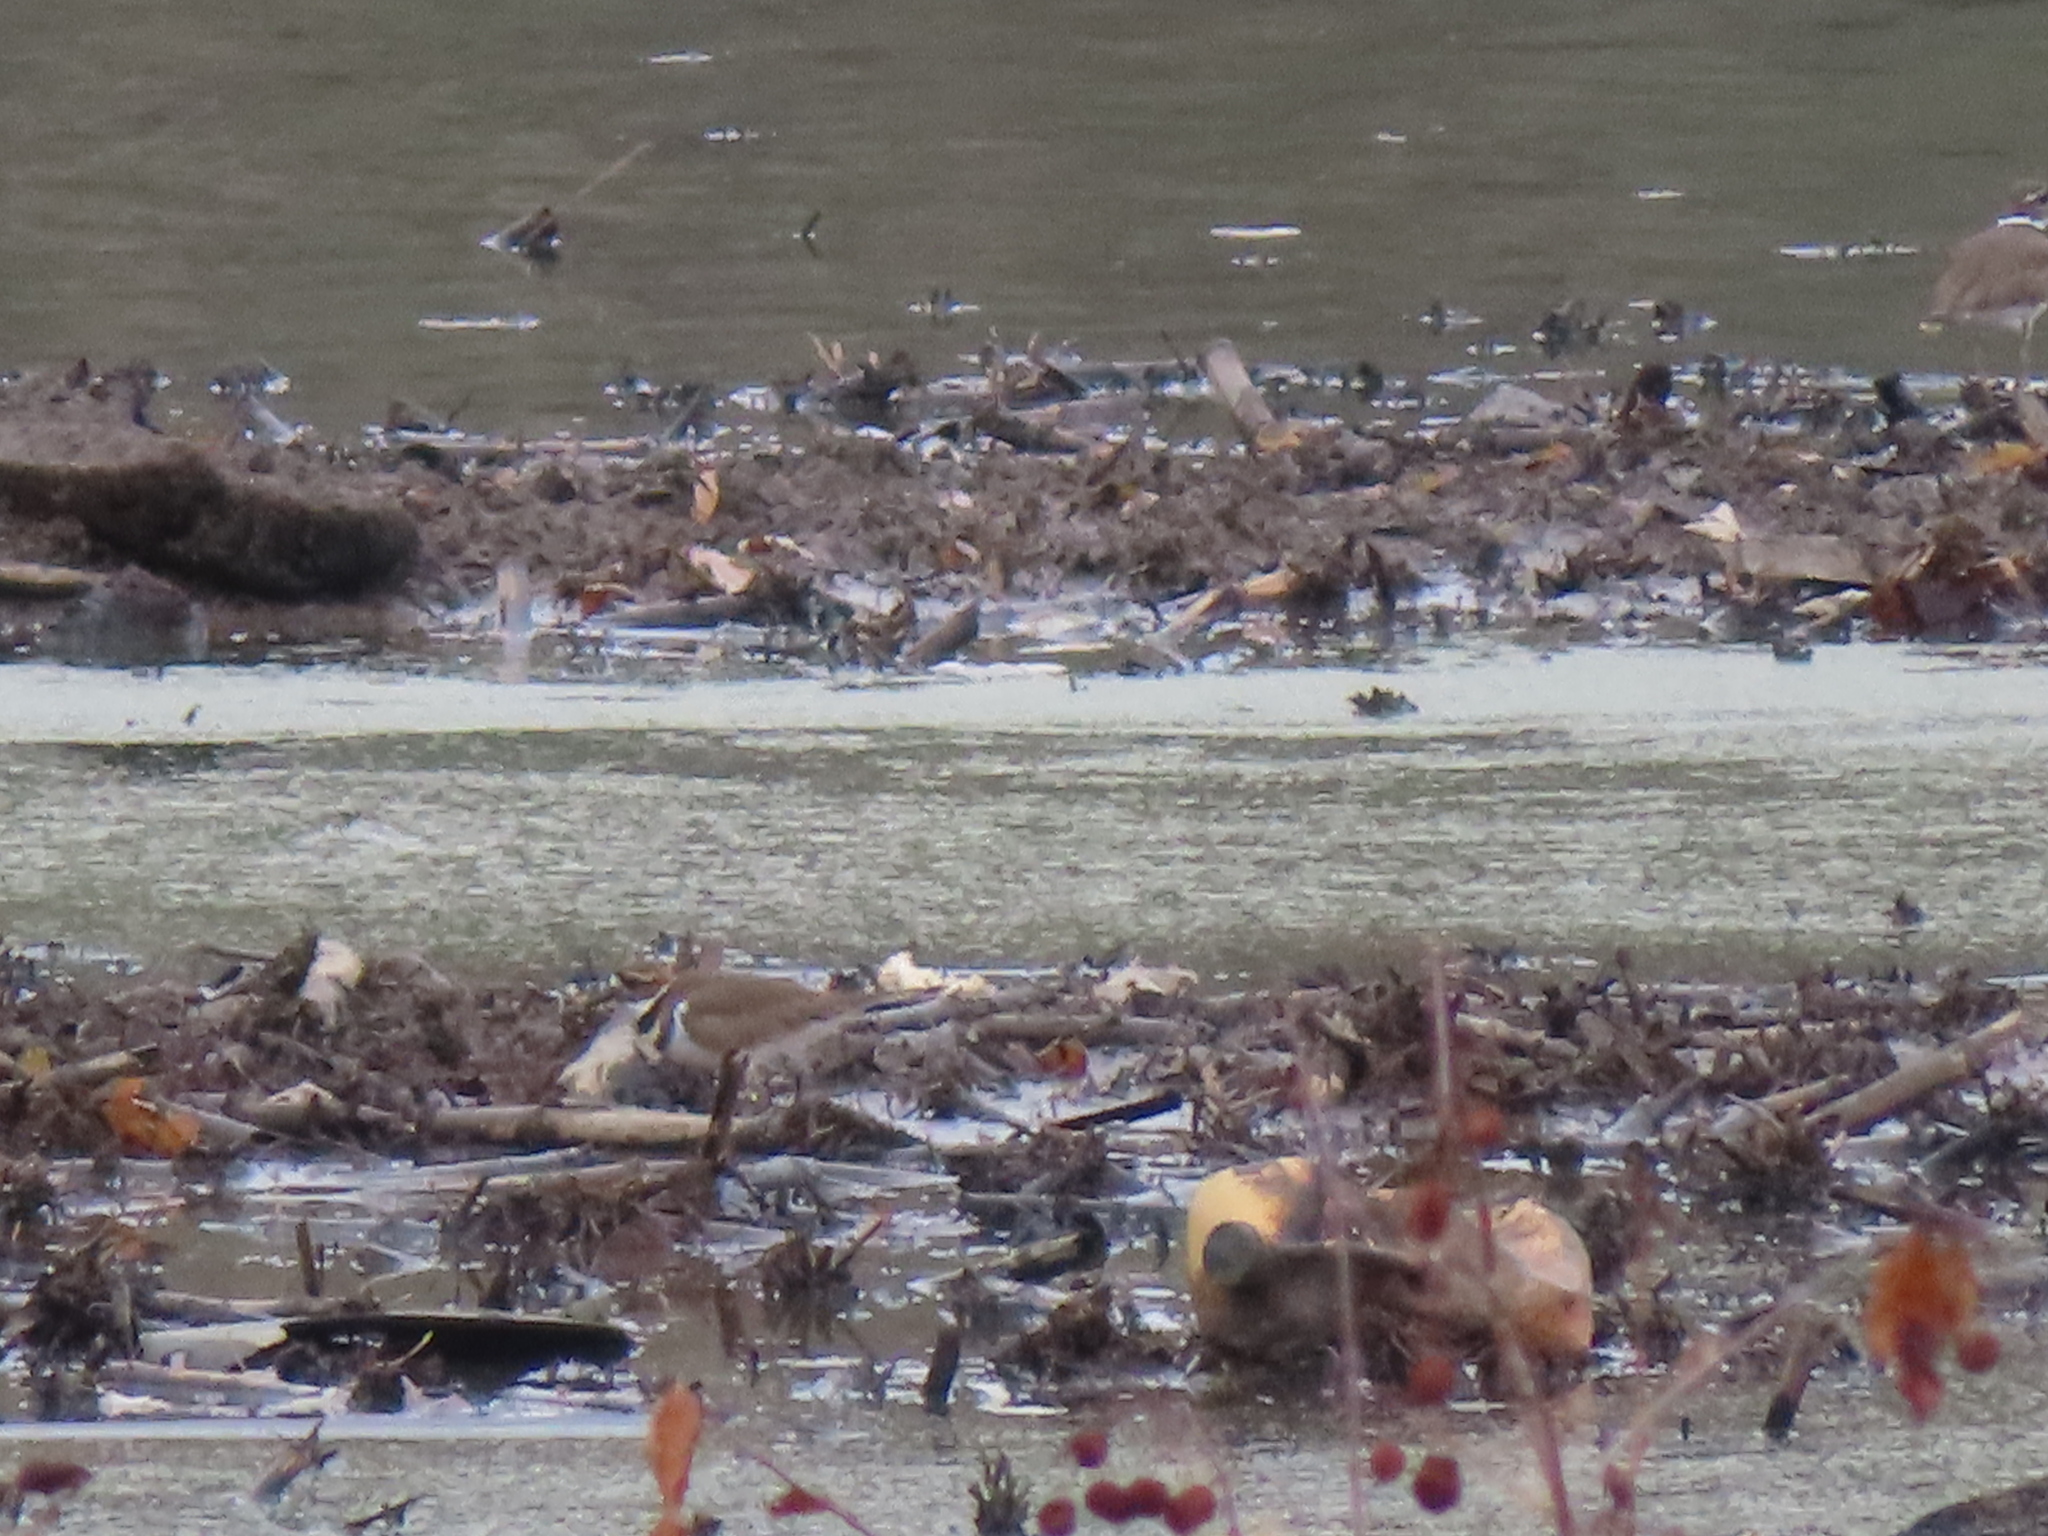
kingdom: Animalia
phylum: Chordata
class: Aves
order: Charadriiformes
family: Charadriidae
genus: Charadrius
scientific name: Charadrius vociferus
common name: Killdeer
